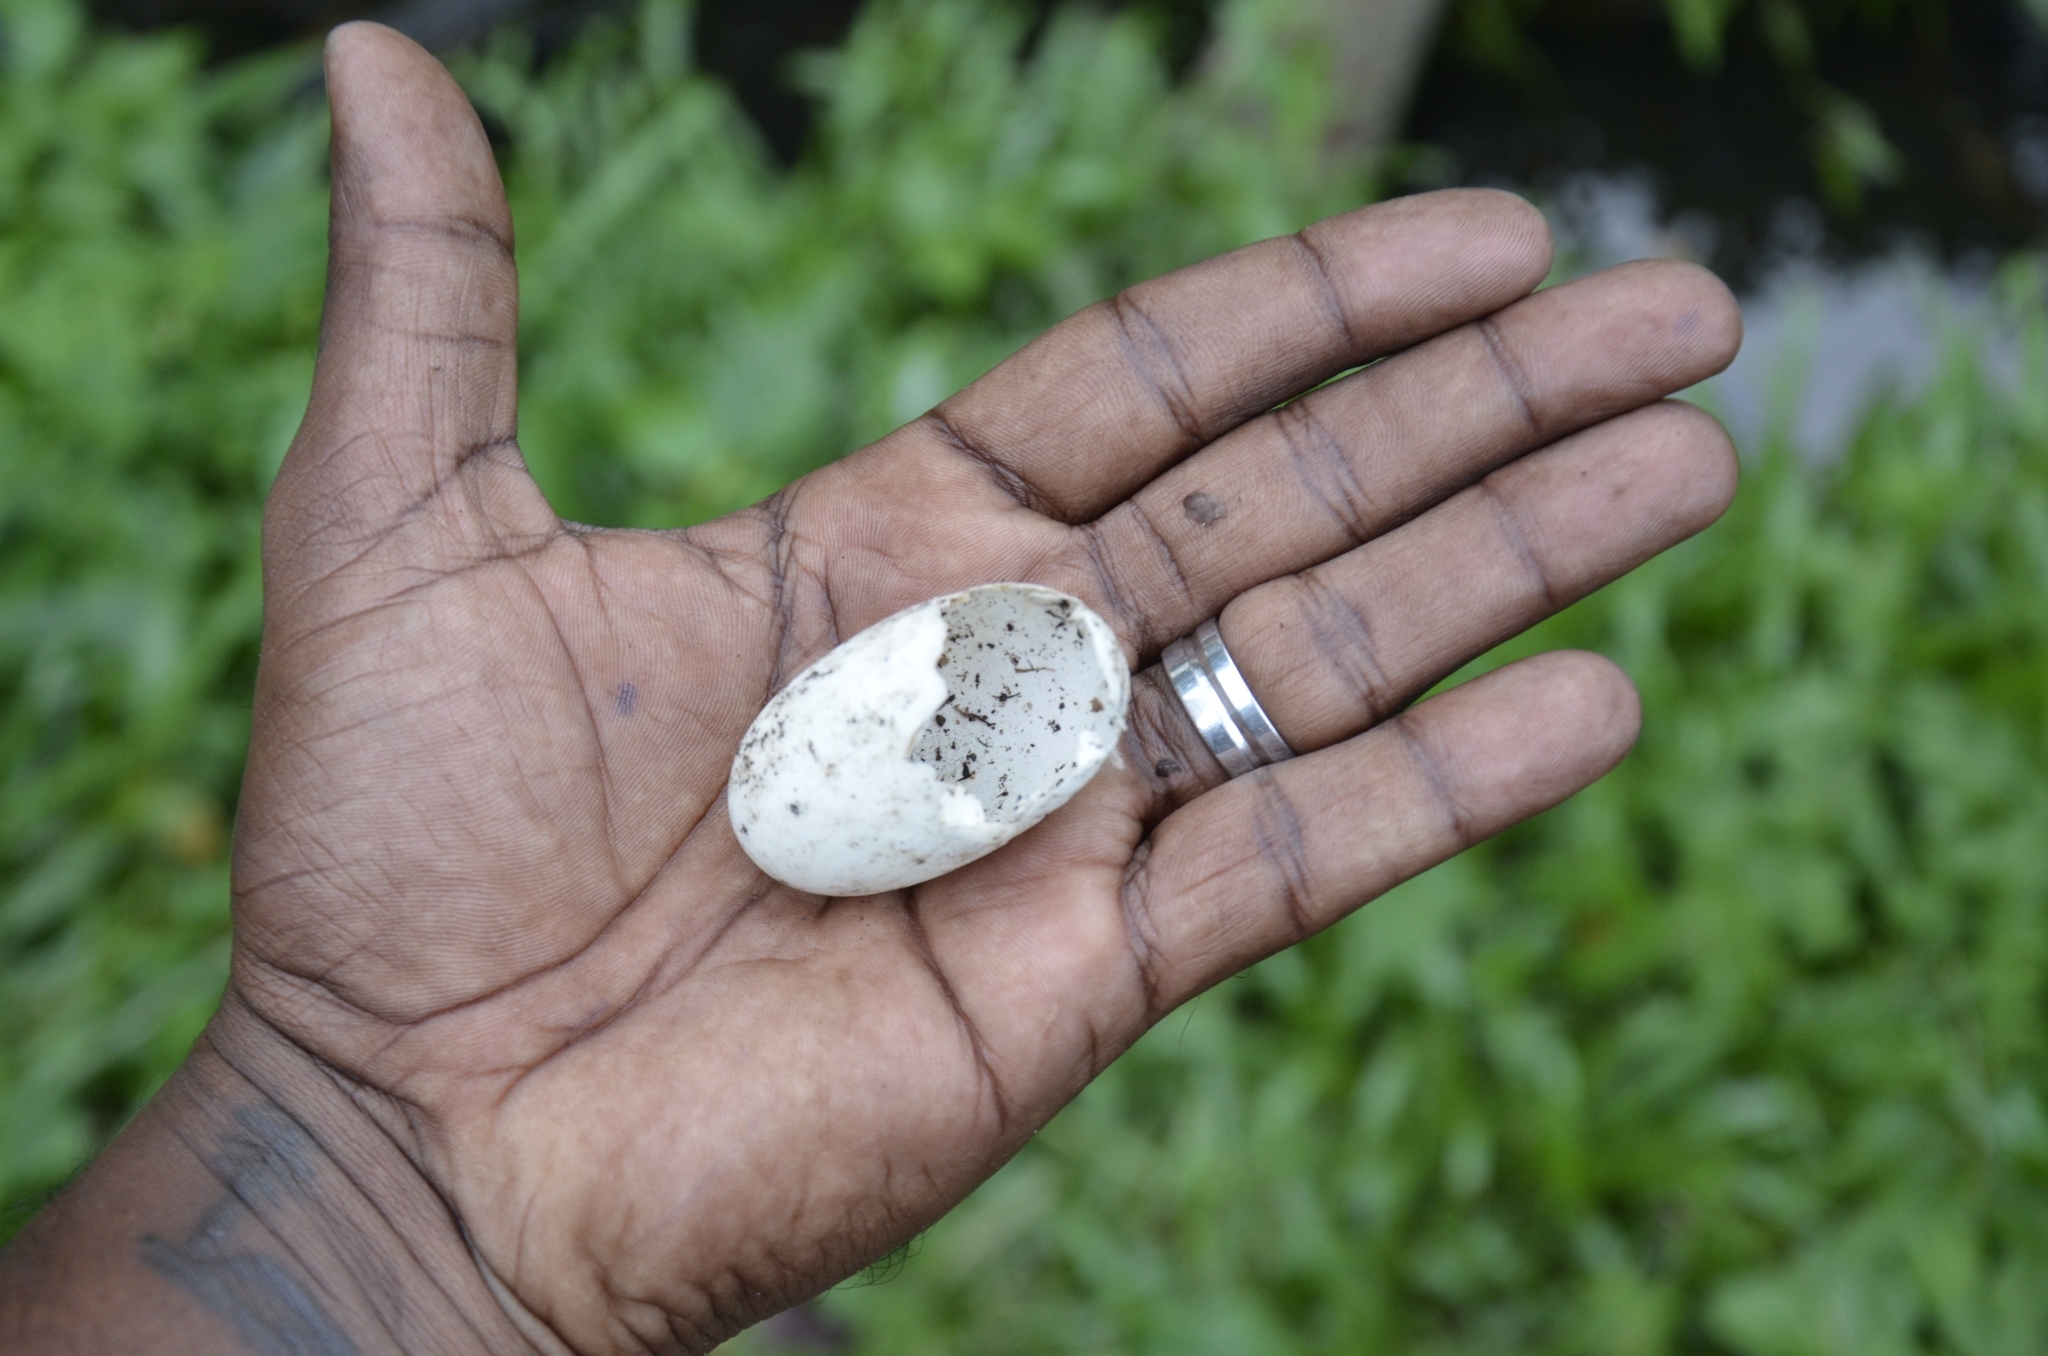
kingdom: Animalia
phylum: Chordata
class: Testudines
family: Geoemydidae
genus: Melanochelys
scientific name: Melanochelys trijuga
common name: Indian black turtle
